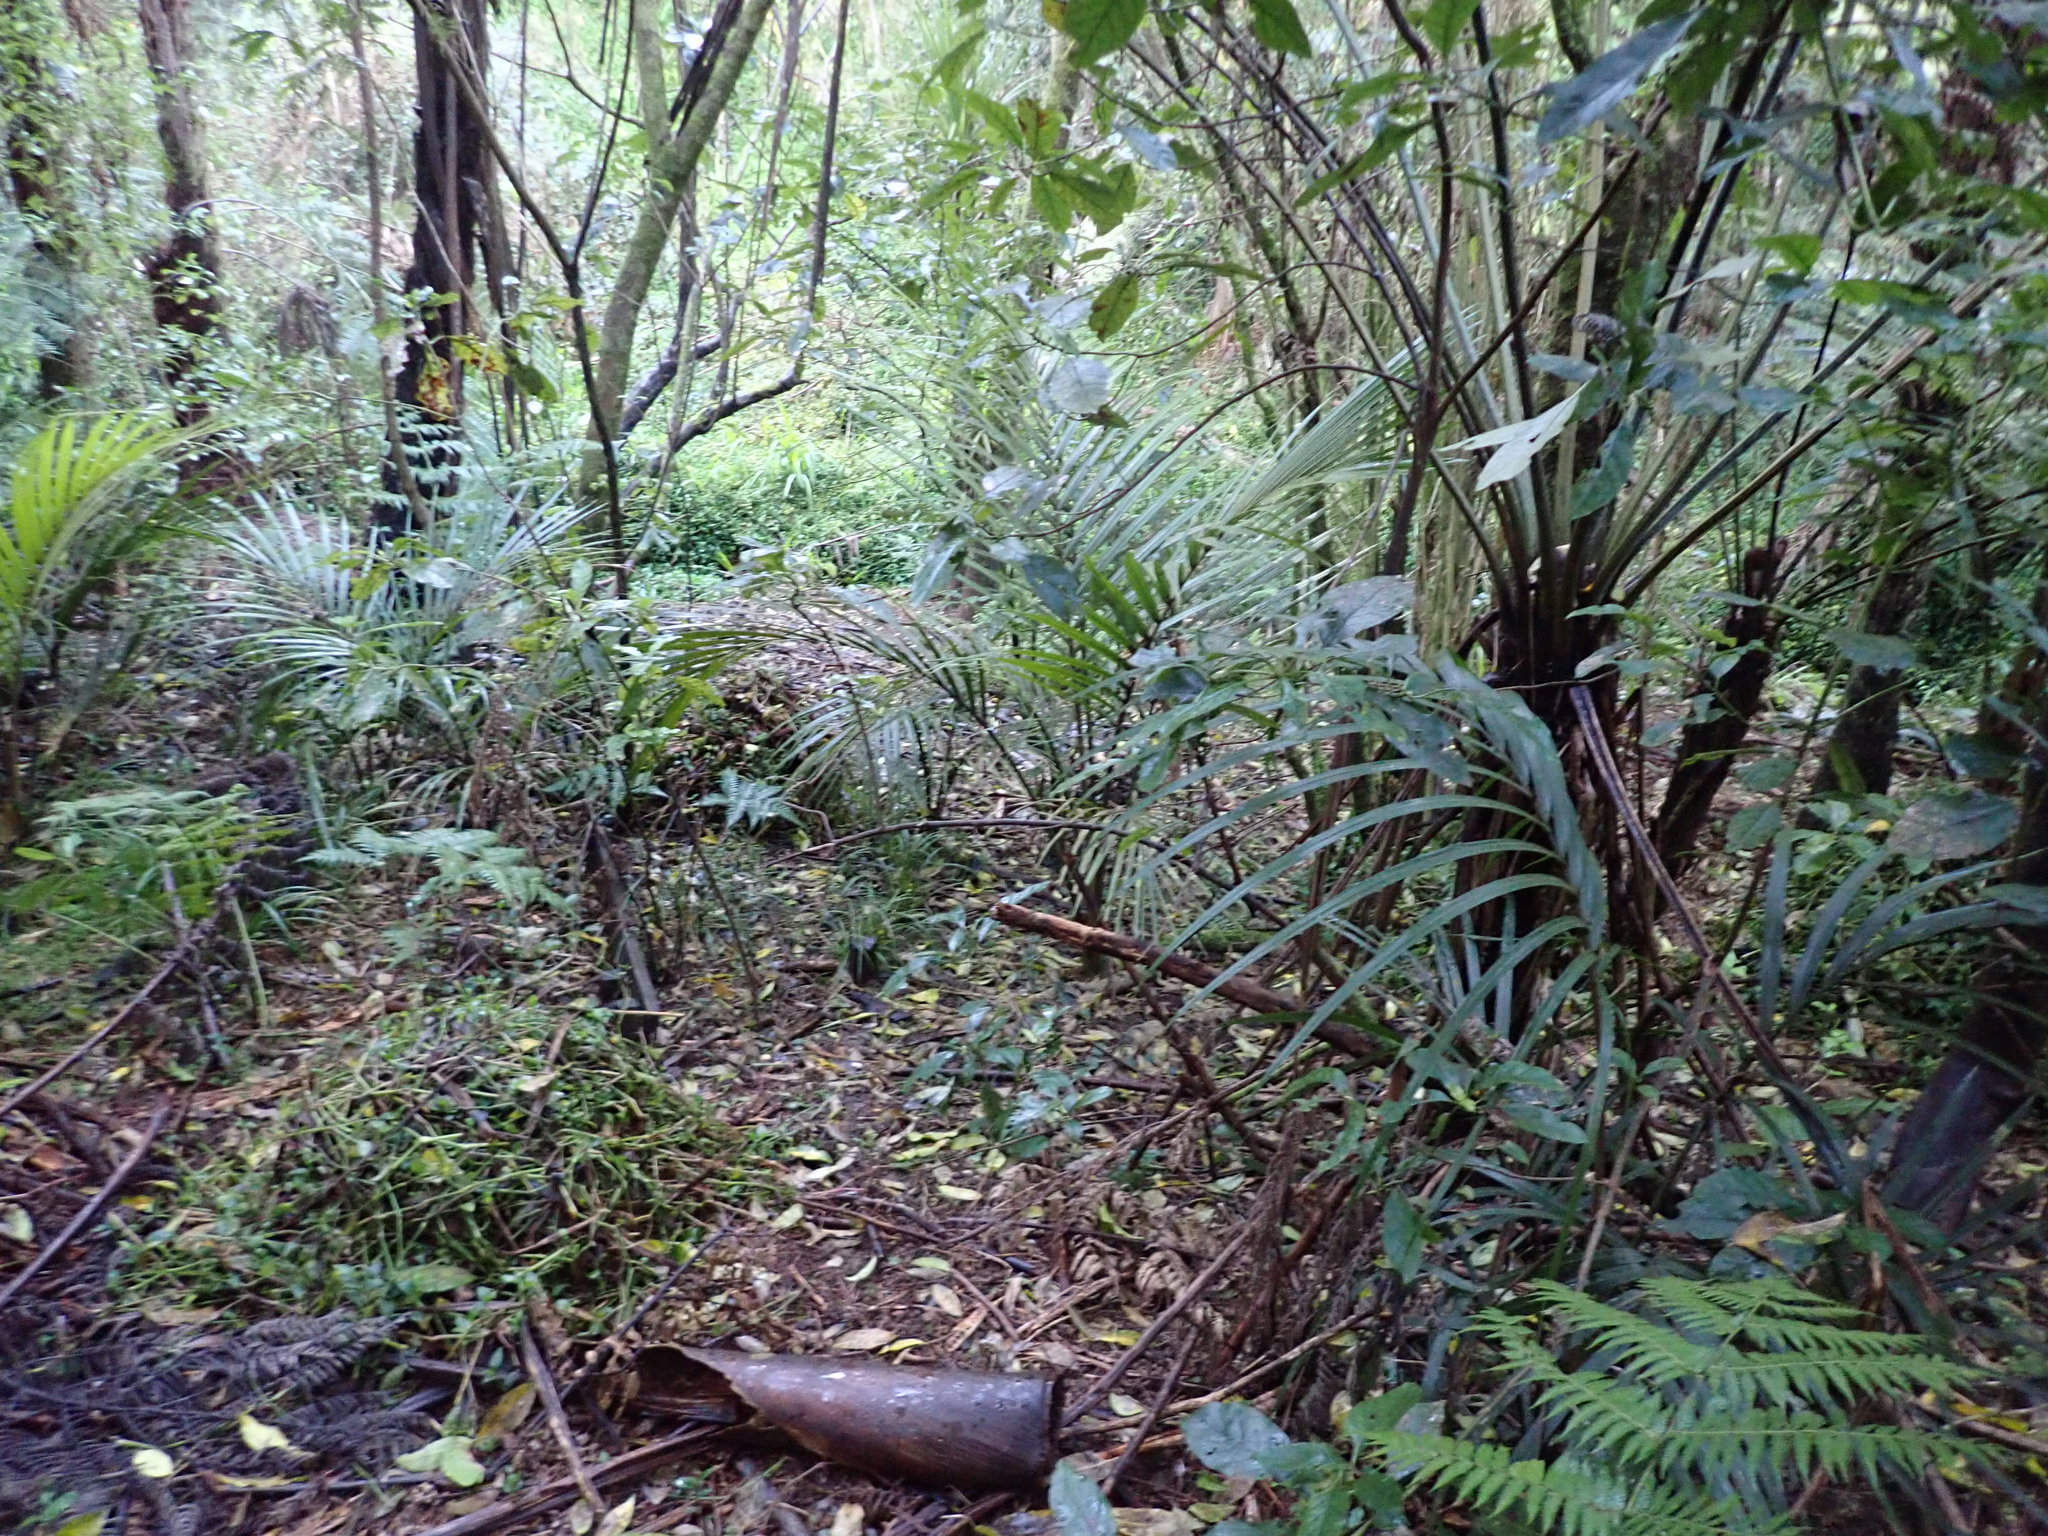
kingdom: Plantae
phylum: Tracheophyta
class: Liliopsida
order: Arecales
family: Arecaceae
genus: Rhopalostylis
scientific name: Rhopalostylis sapida
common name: Feather-duster palm
